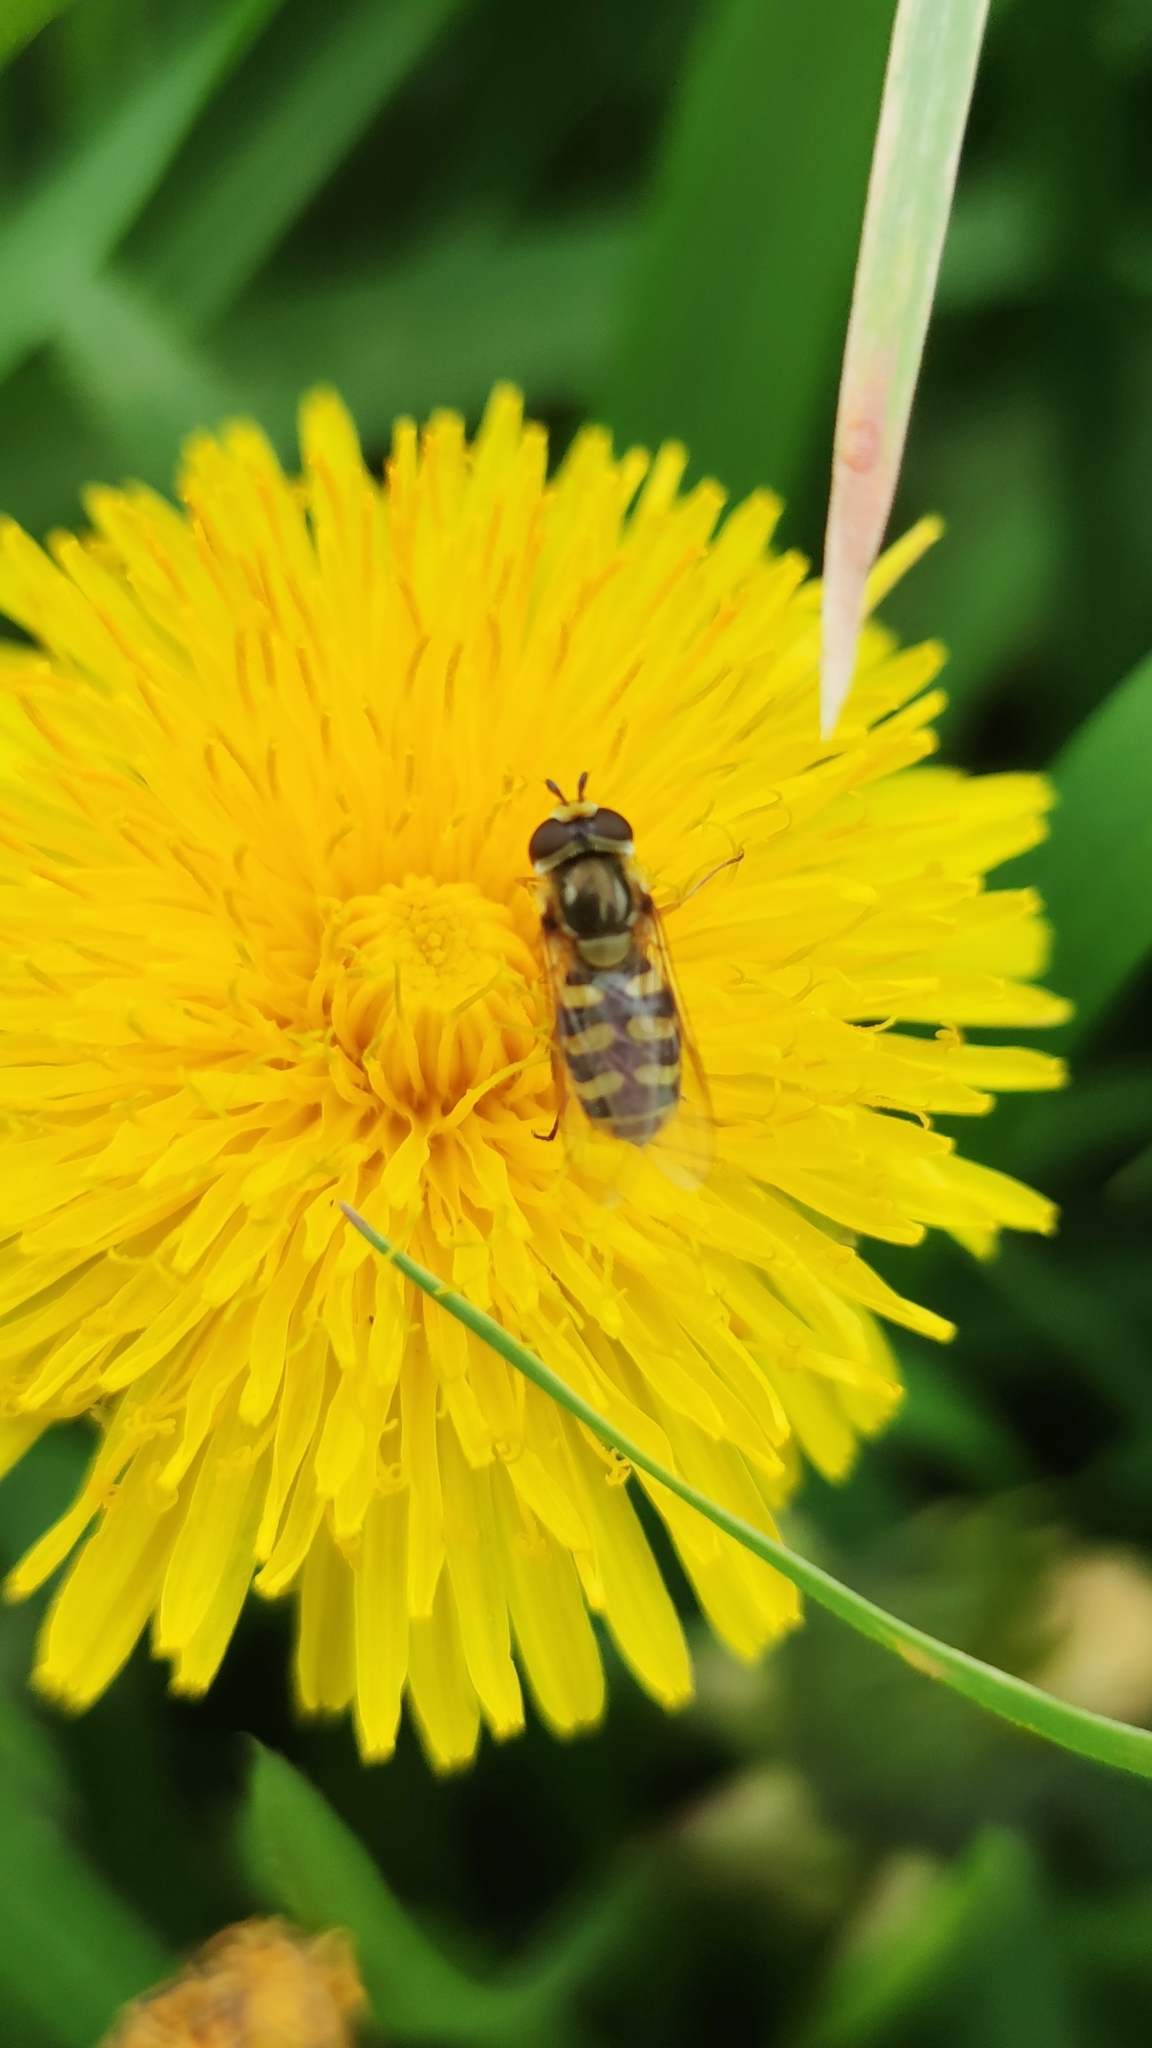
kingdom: Animalia
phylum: Arthropoda
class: Insecta
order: Diptera
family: Syrphidae
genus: Eupeodes
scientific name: Eupeodes corollae
